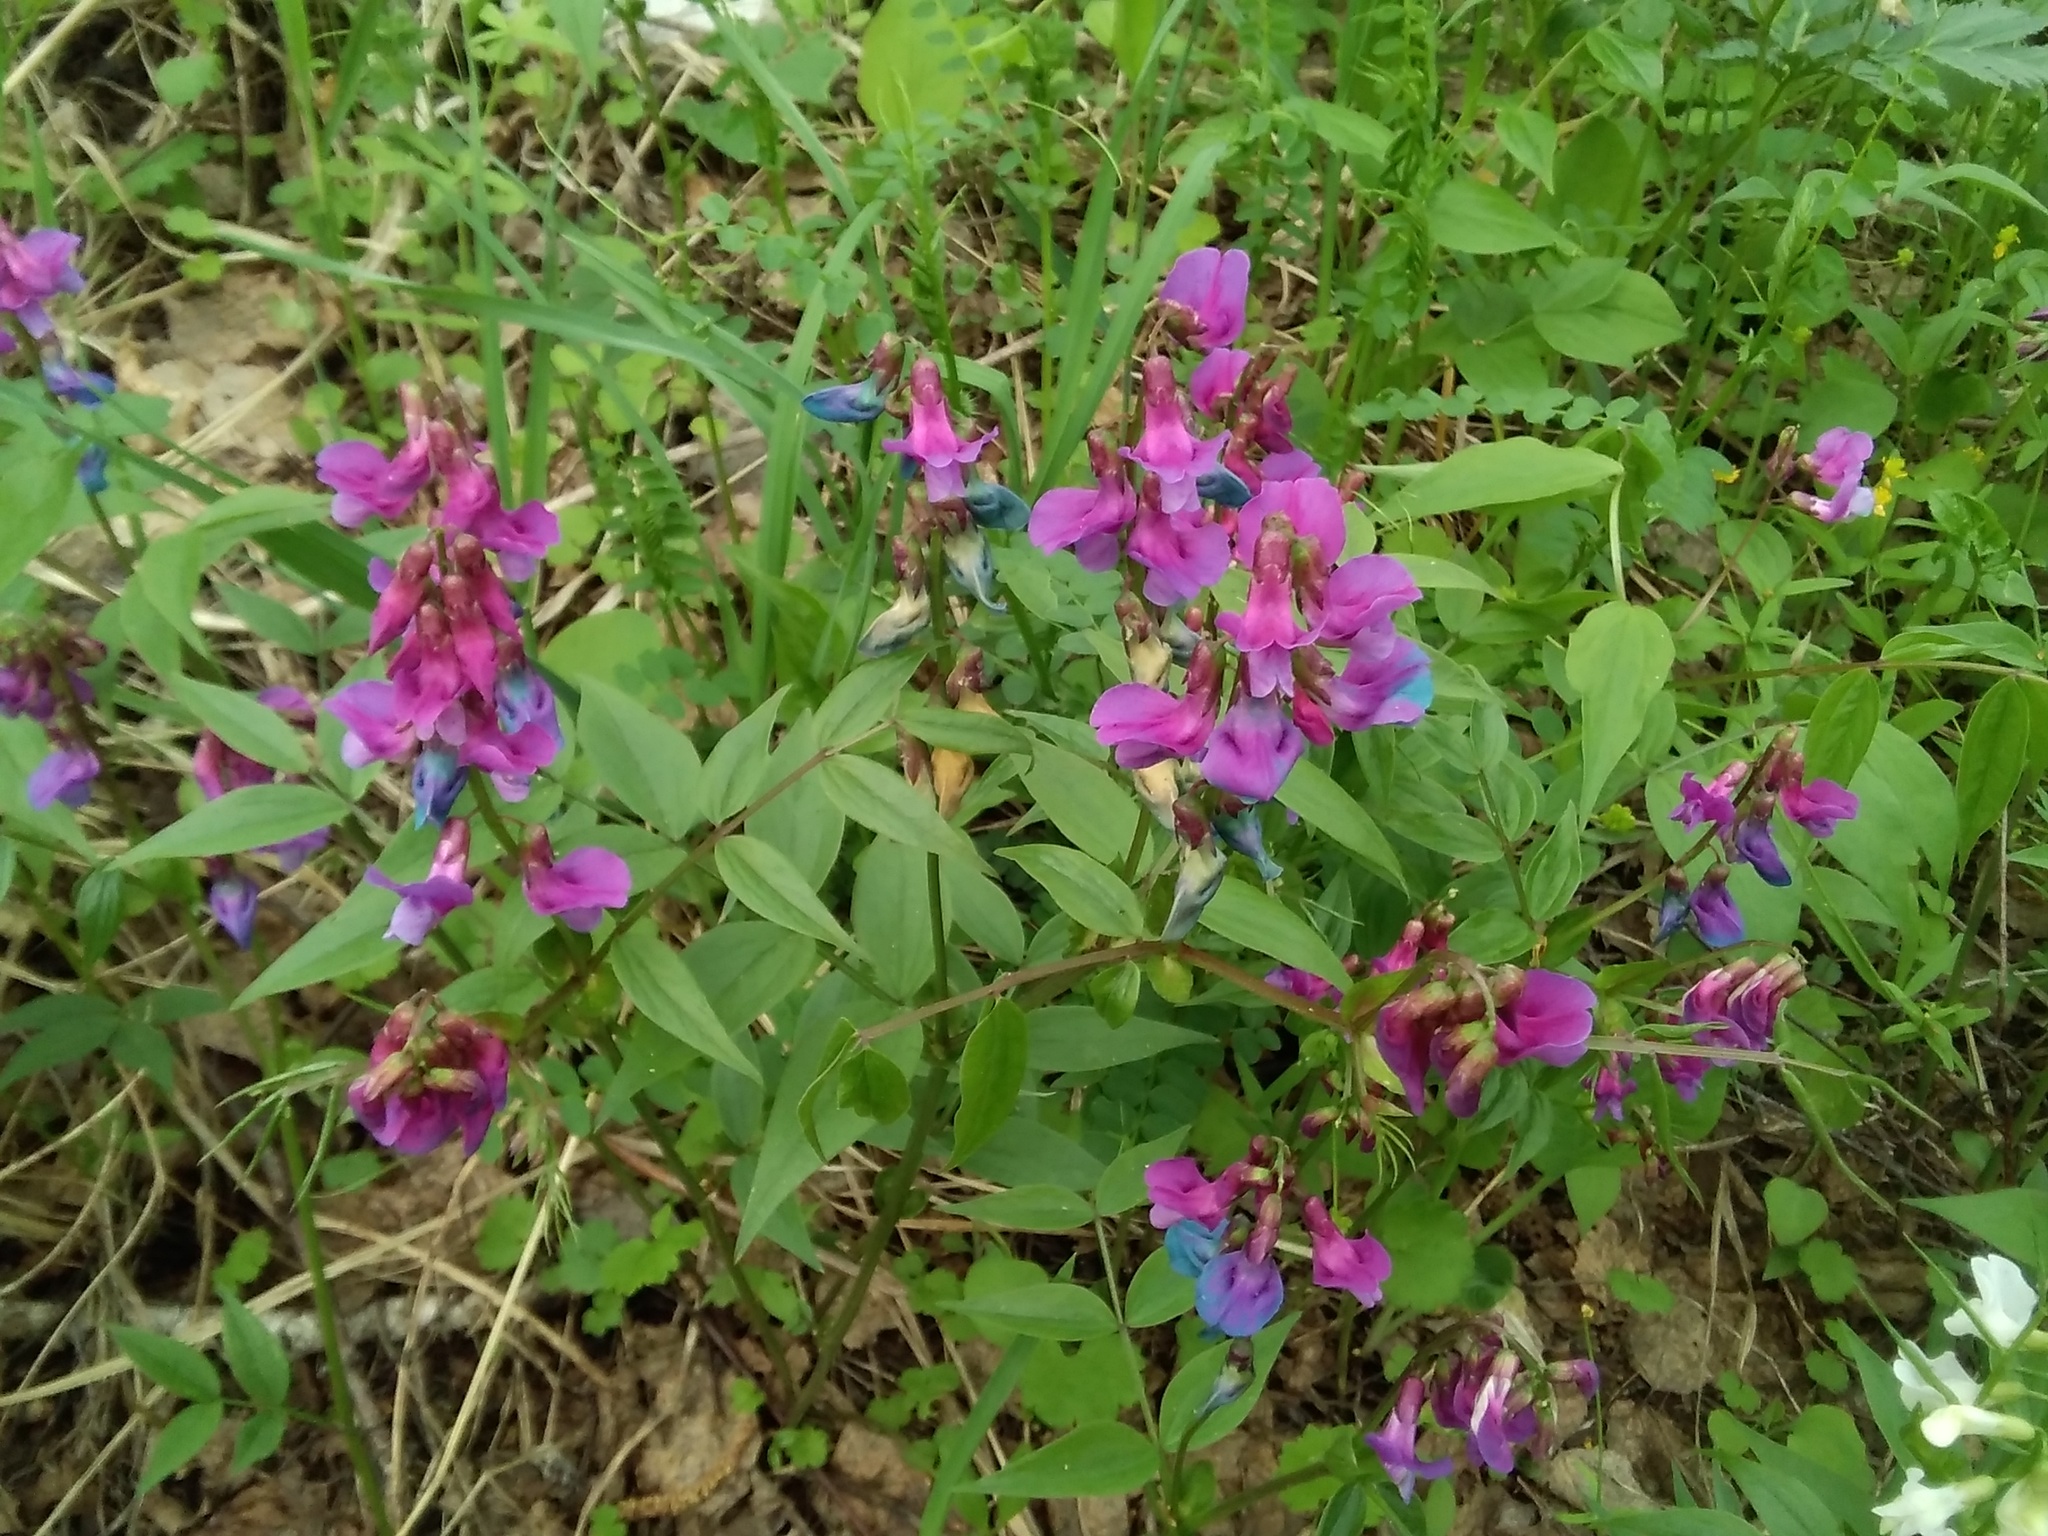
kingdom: Plantae
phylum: Tracheophyta
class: Magnoliopsida
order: Fabales
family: Fabaceae
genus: Lathyrus
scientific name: Lathyrus vernus
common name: Spring pea
